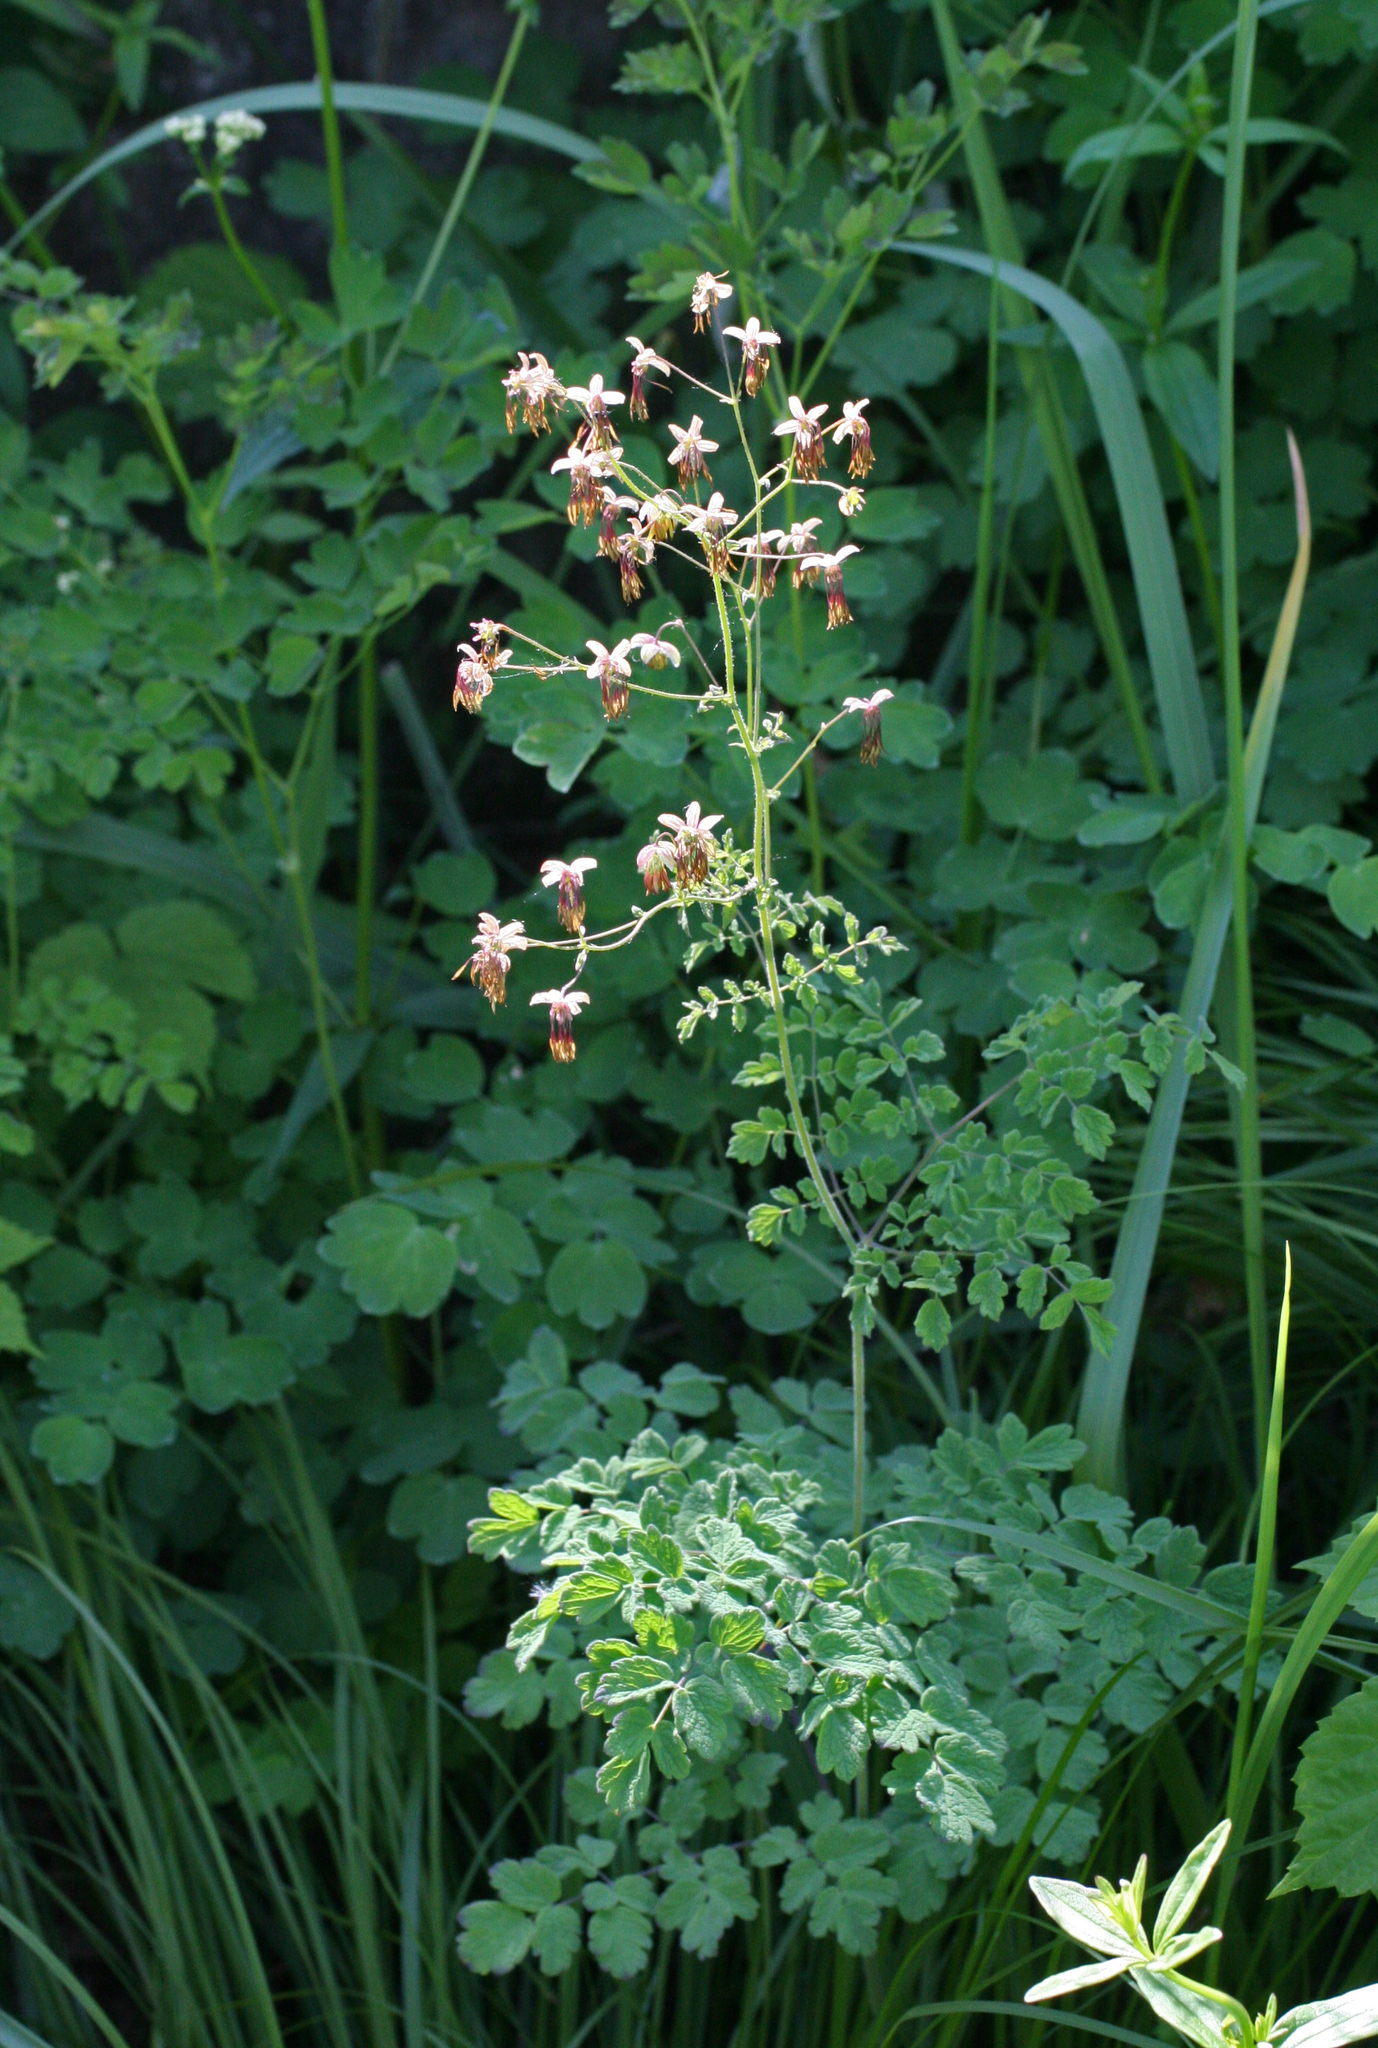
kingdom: Plantae
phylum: Tracheophyta
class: Magnoliopsida
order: Ranunculales
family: Ranunculaceae
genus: Thalictrum
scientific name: Thalictrum foetidum
